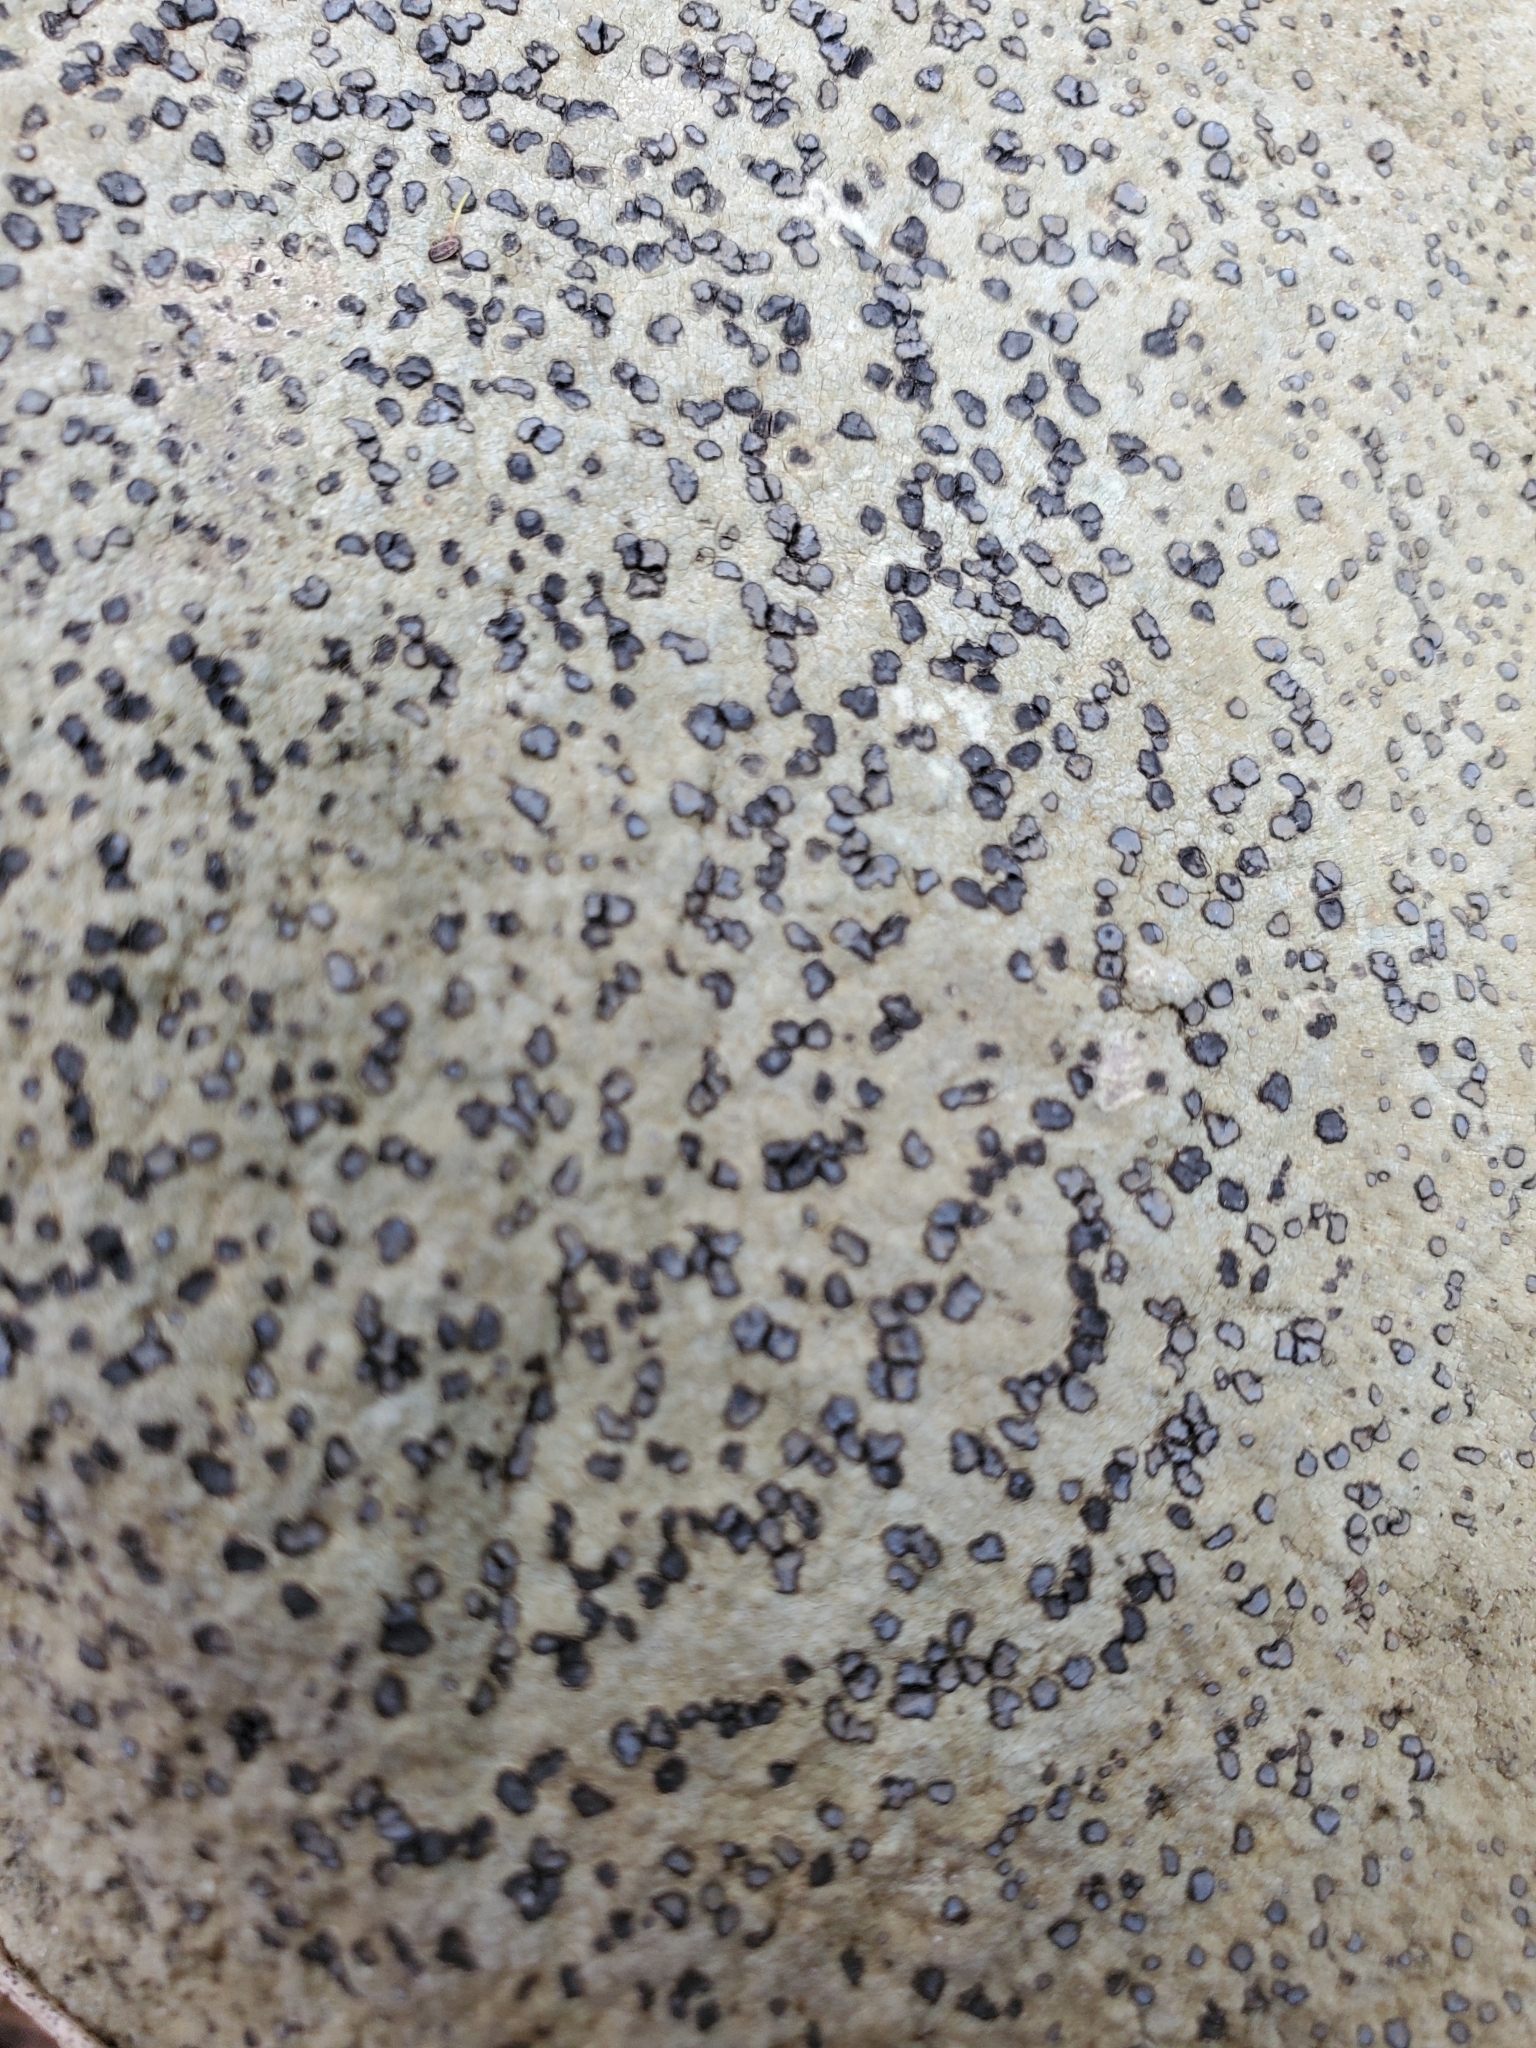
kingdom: Fungi
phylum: Ascomycota
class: Lecanoromycetes
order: Lecideales
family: Lecideaceae
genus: Porpidia
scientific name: Porpidia albocaerulescens
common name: Smokey-eyed boulder lichen
